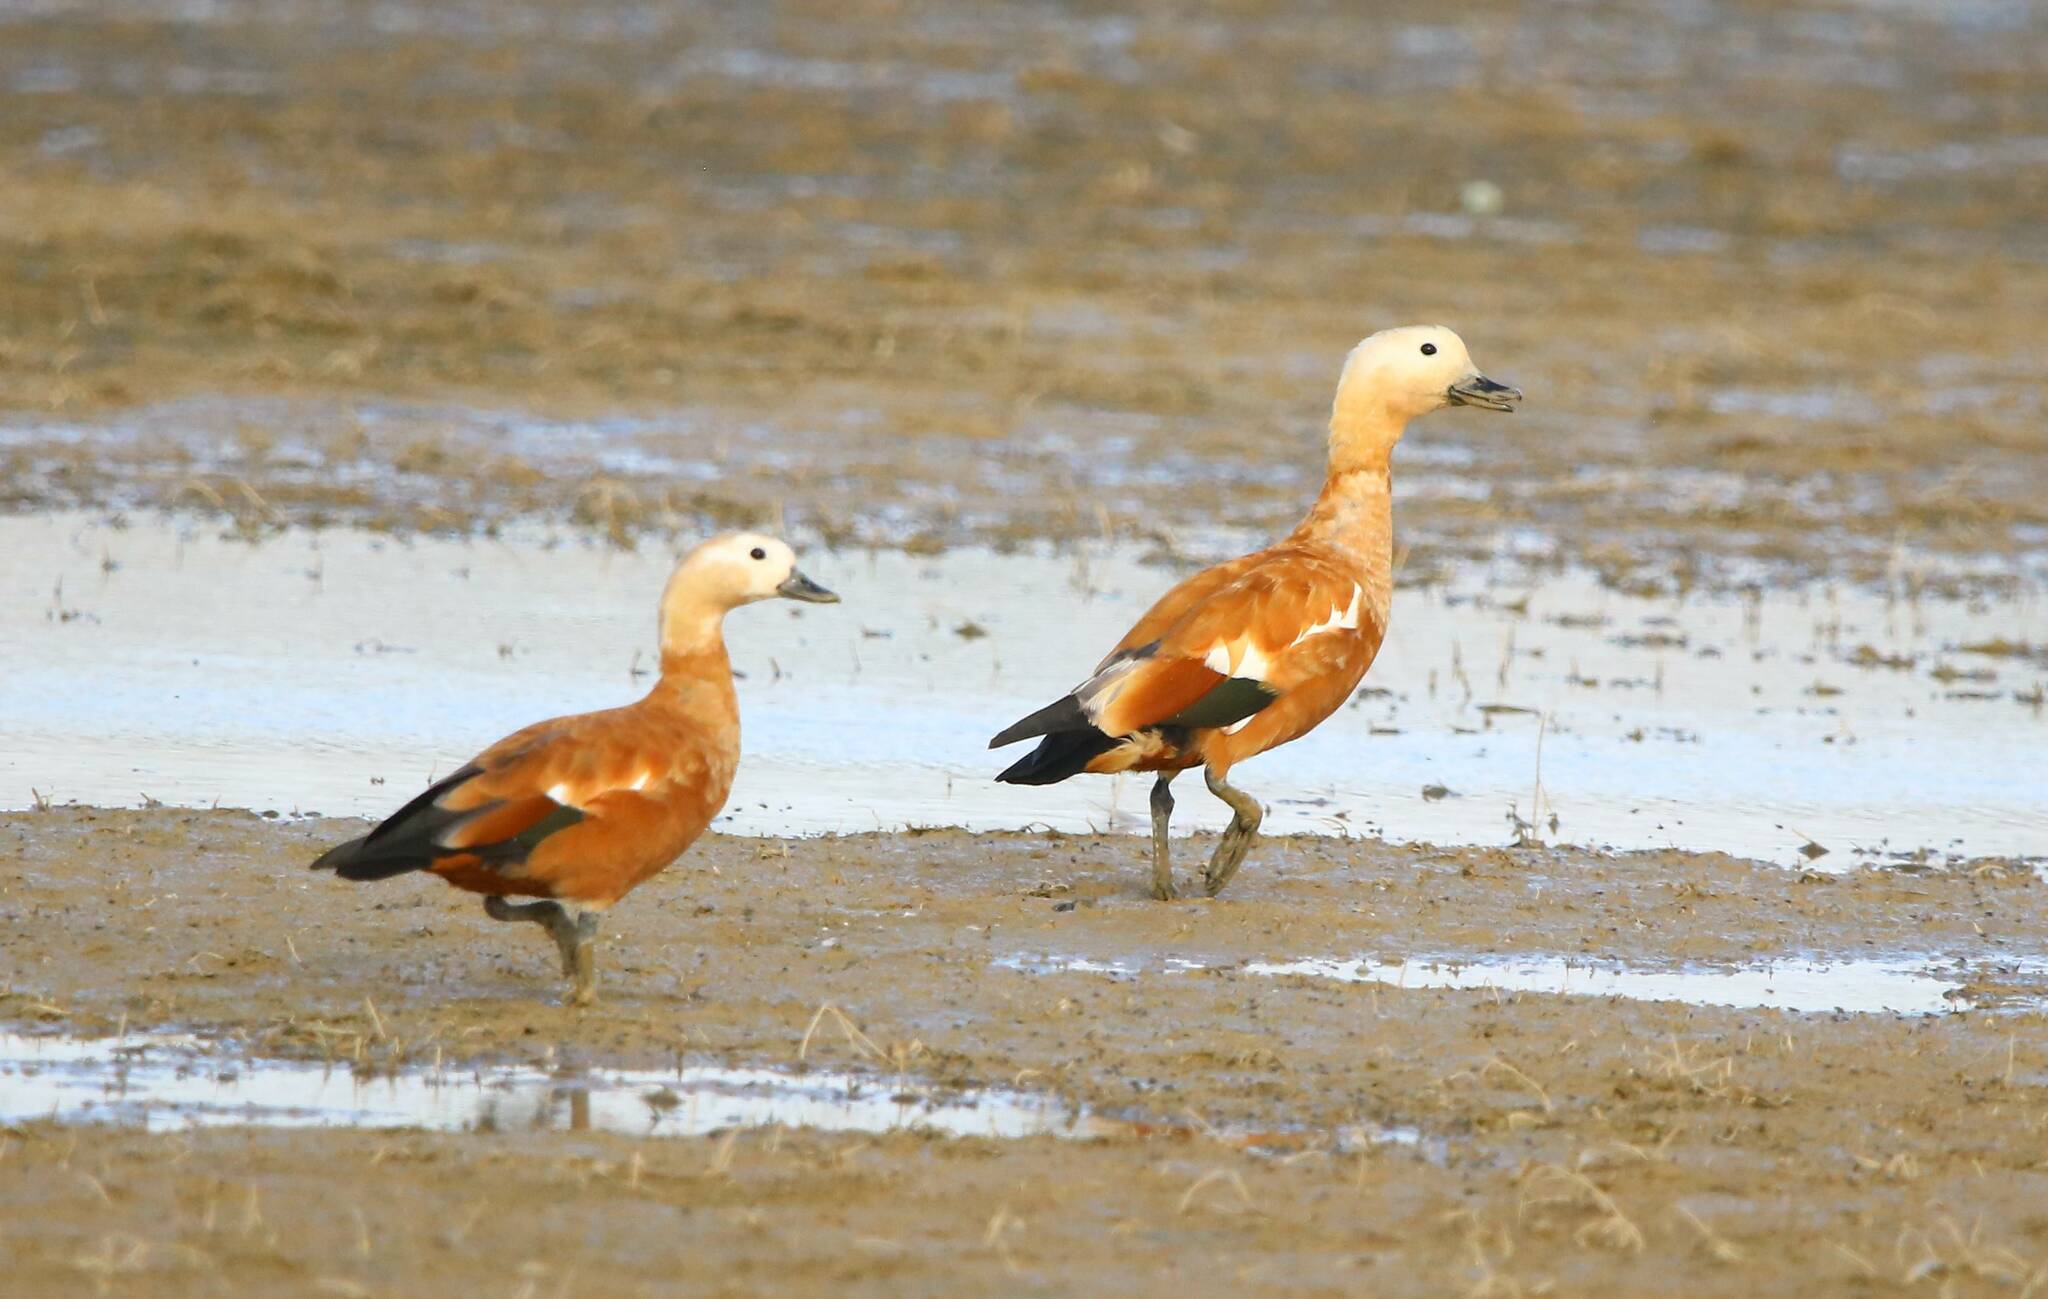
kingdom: Animalia
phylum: Chordata
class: Aves
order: Anseriformes
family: Anatidae
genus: Tadorna
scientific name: Tadorna ferruginea
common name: Ruddy shelduck
